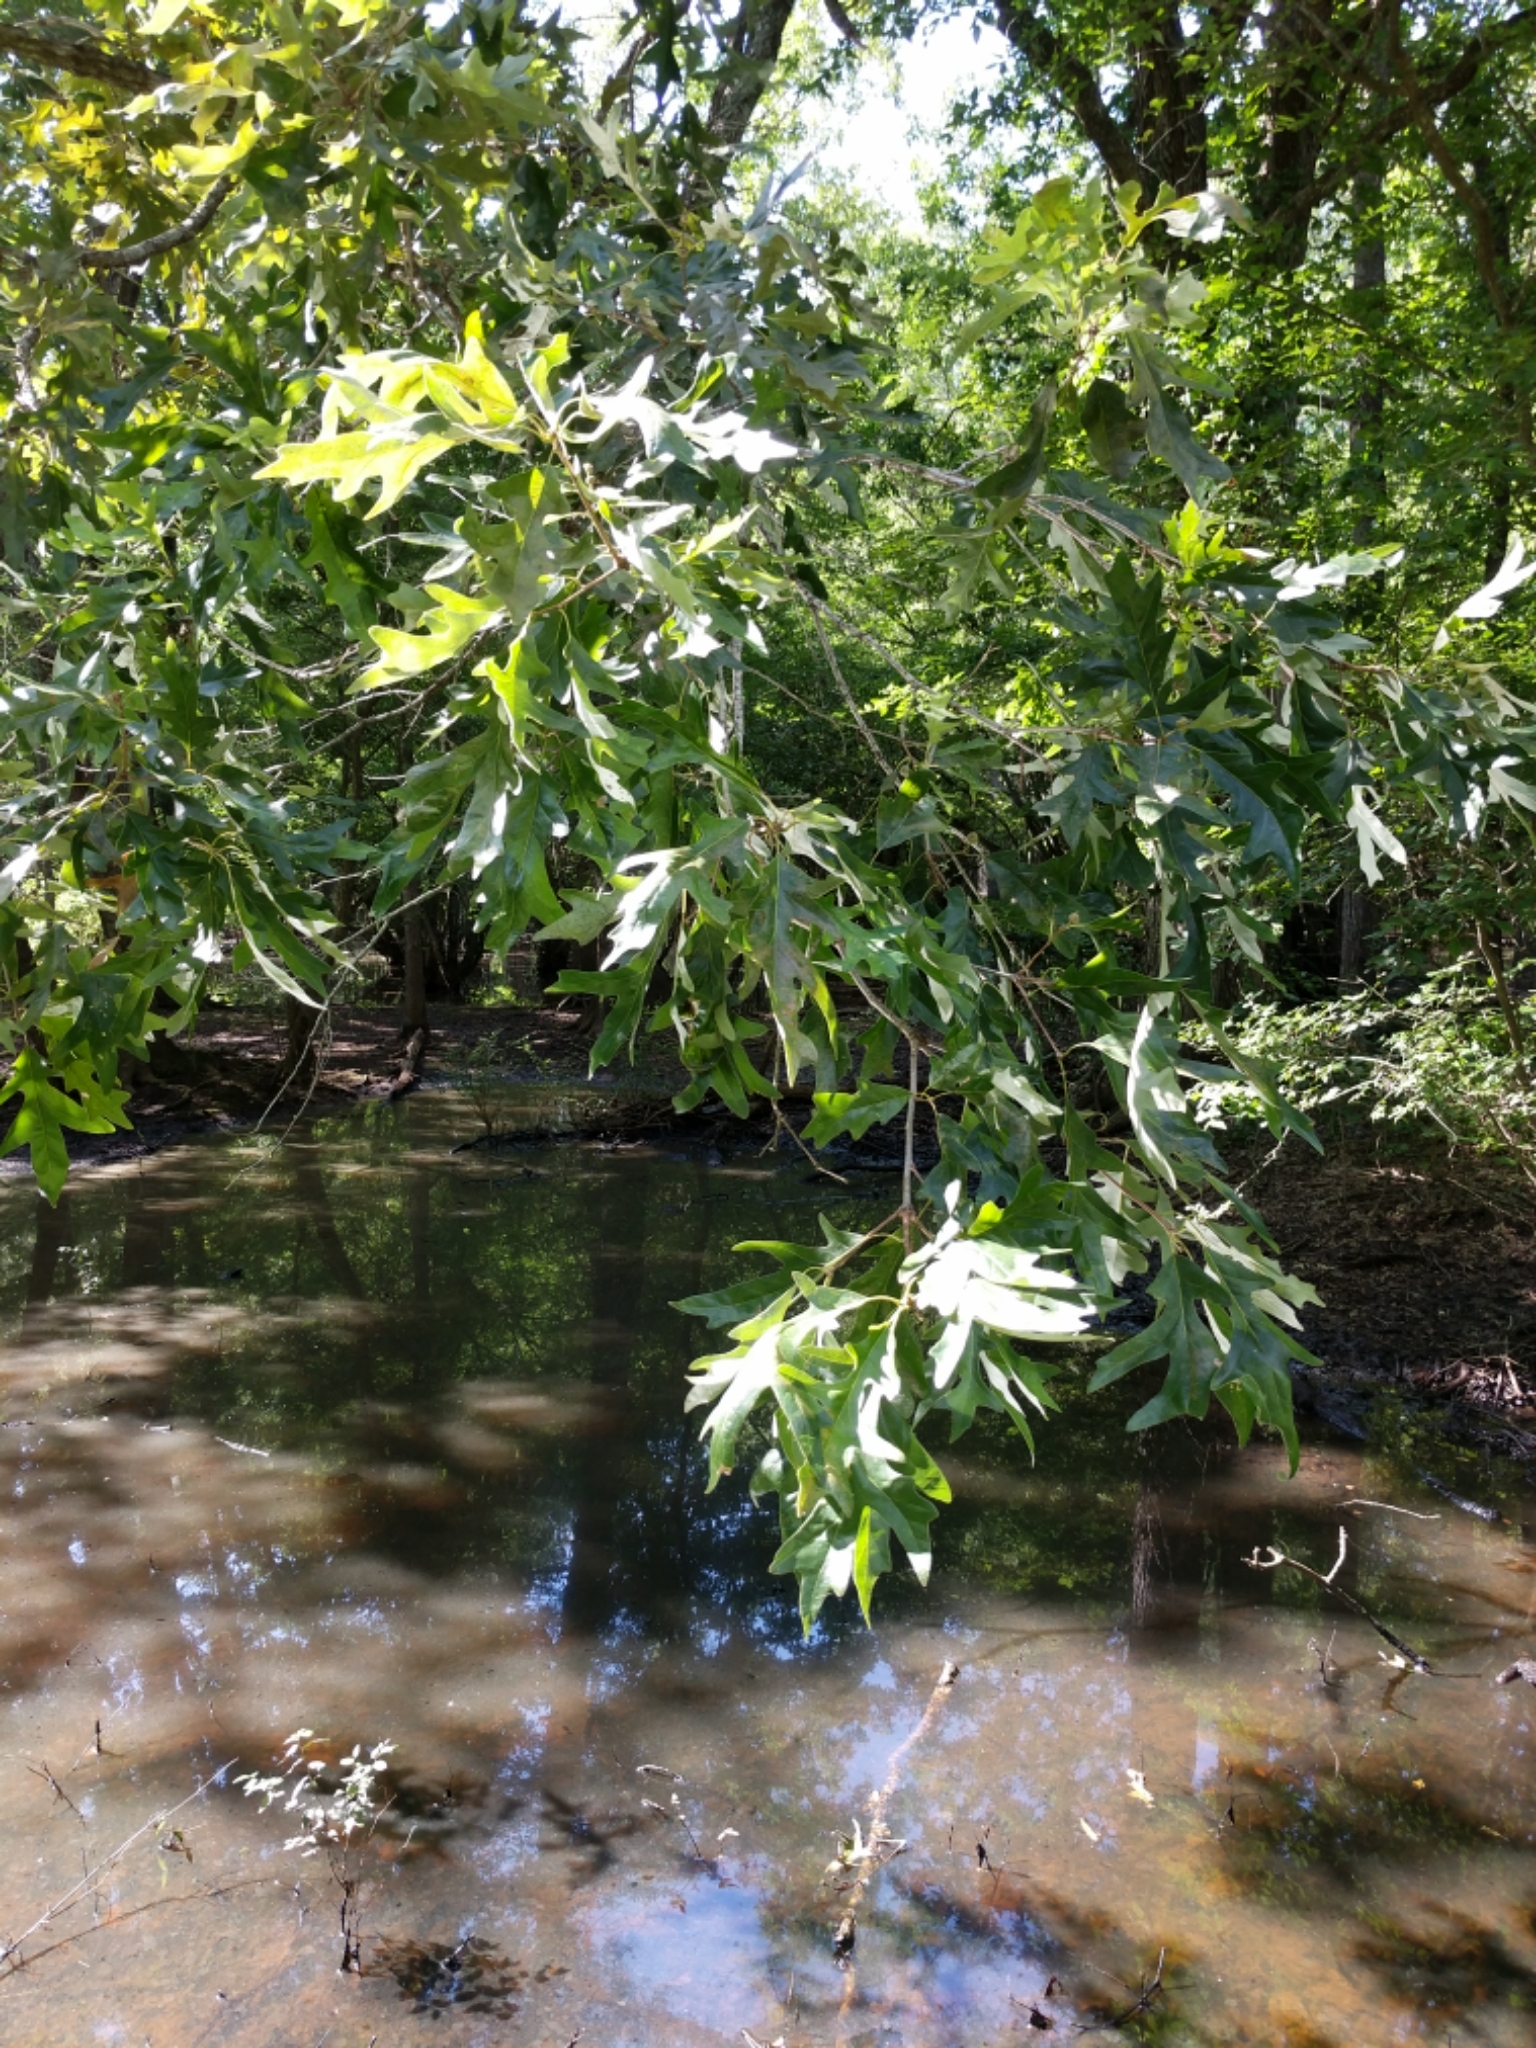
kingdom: Plantae
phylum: Tracheophyta
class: Magnoliopsida
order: Fagales
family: Fagaceae
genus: Quercus
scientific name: Quercus lyrata
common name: Overcup oak
